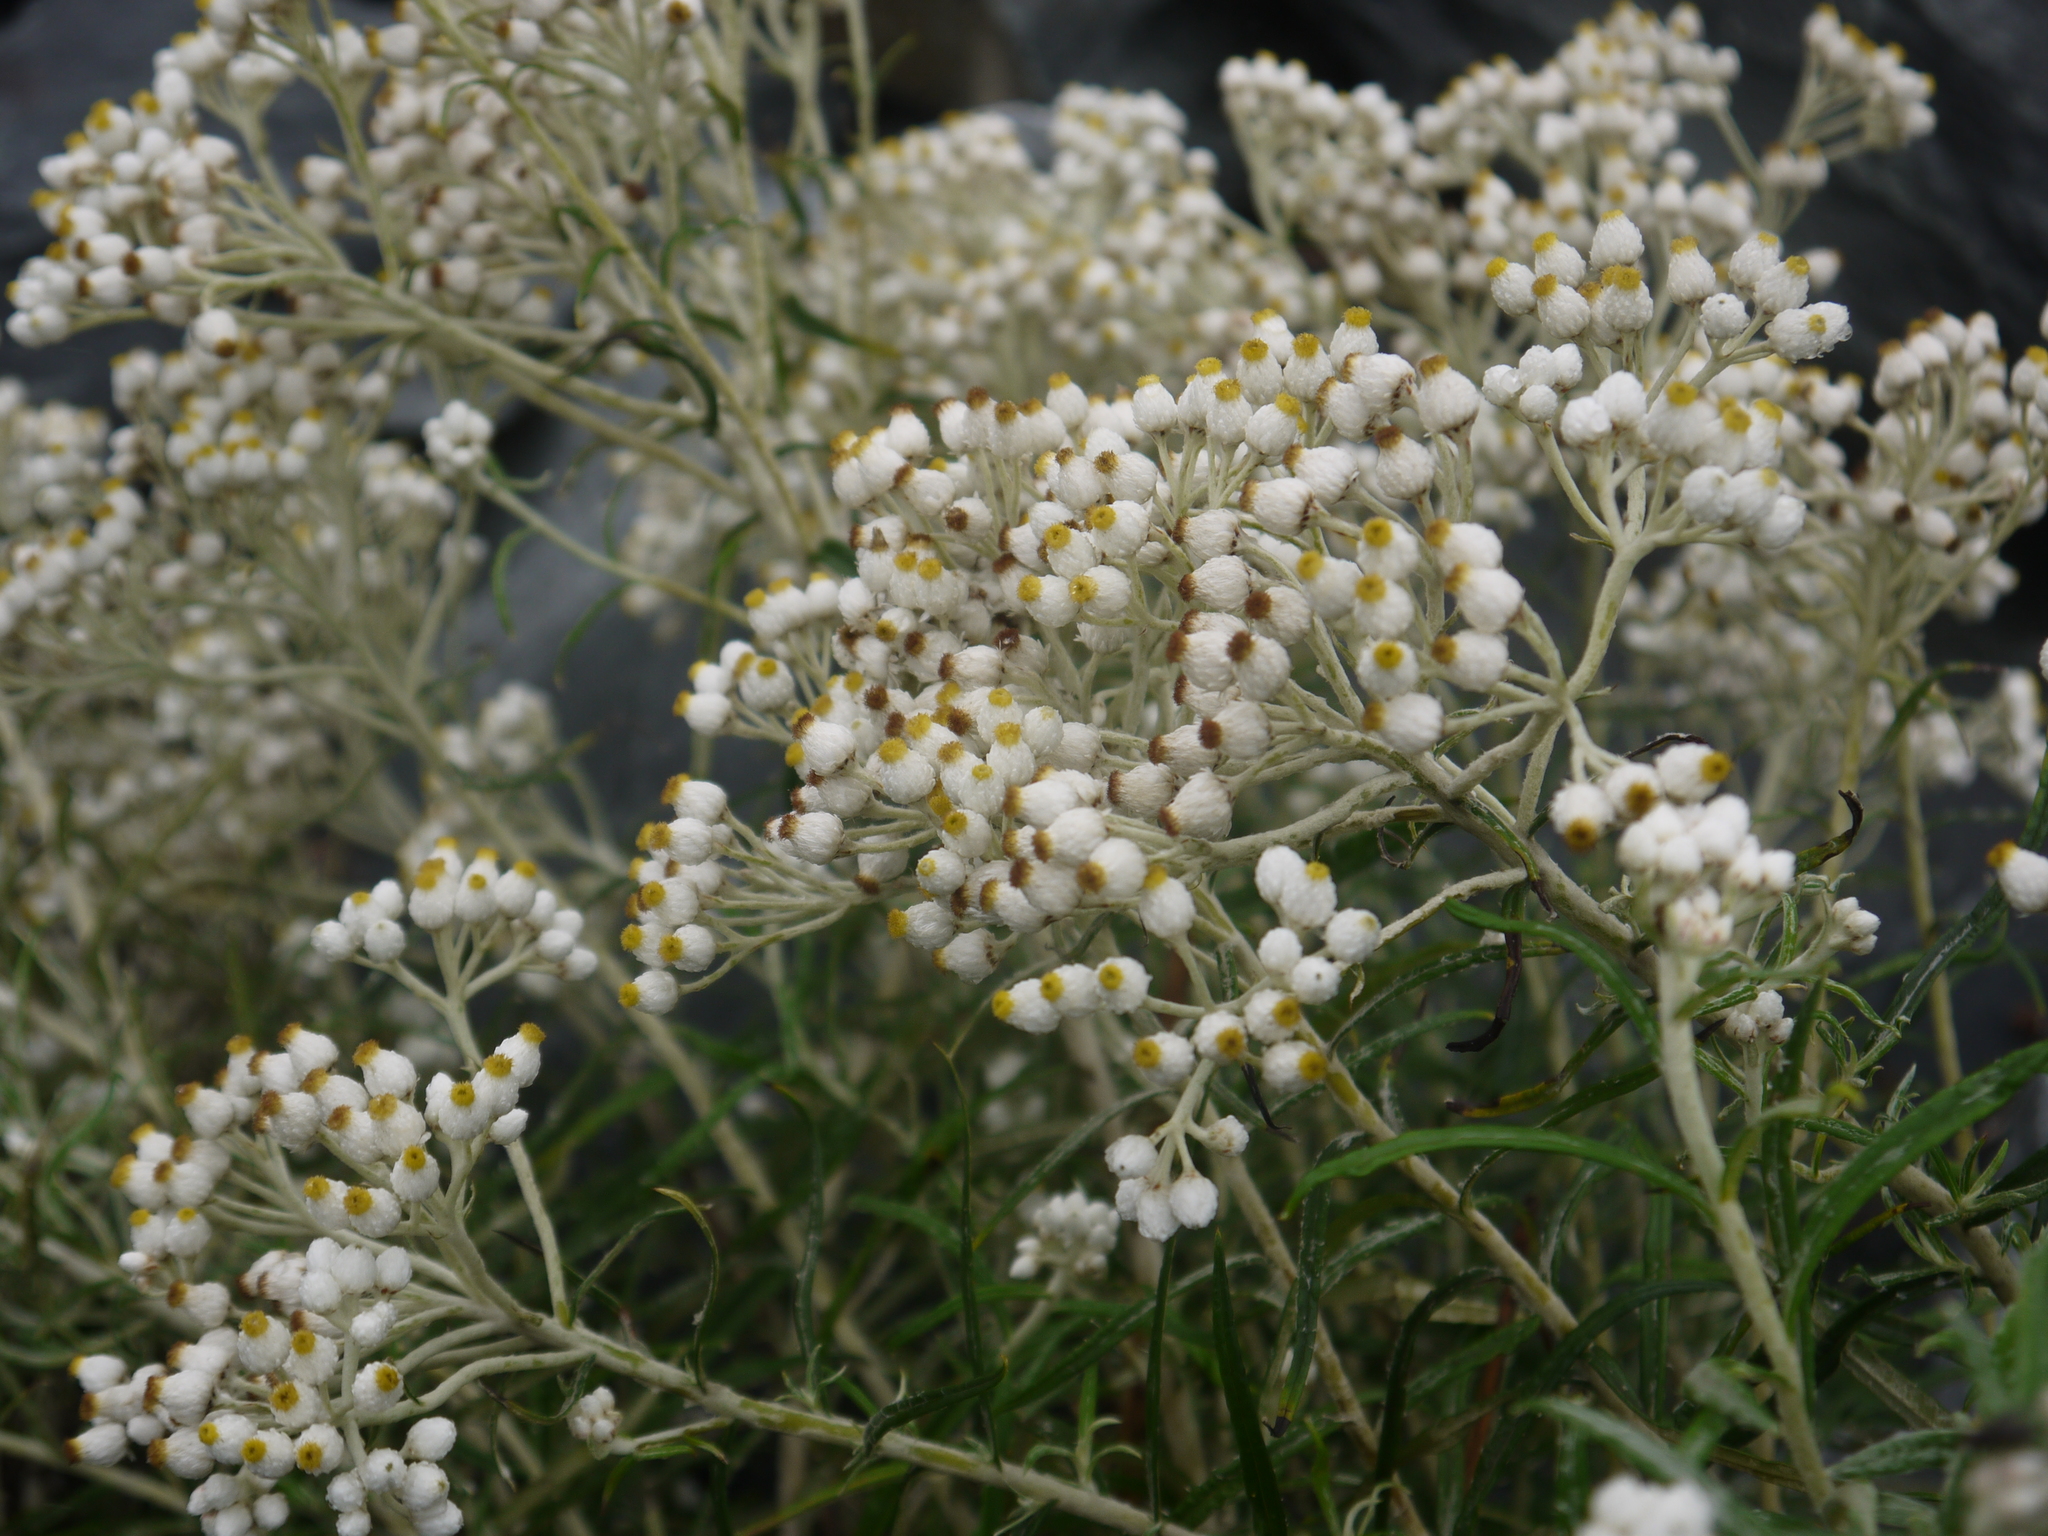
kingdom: Plantae
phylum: Tracheophyta
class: Magnoliopsida
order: Asterales
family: Asteraceae
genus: Anaphalis
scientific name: Anaphalis margaritacea
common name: Pearly everlasting
